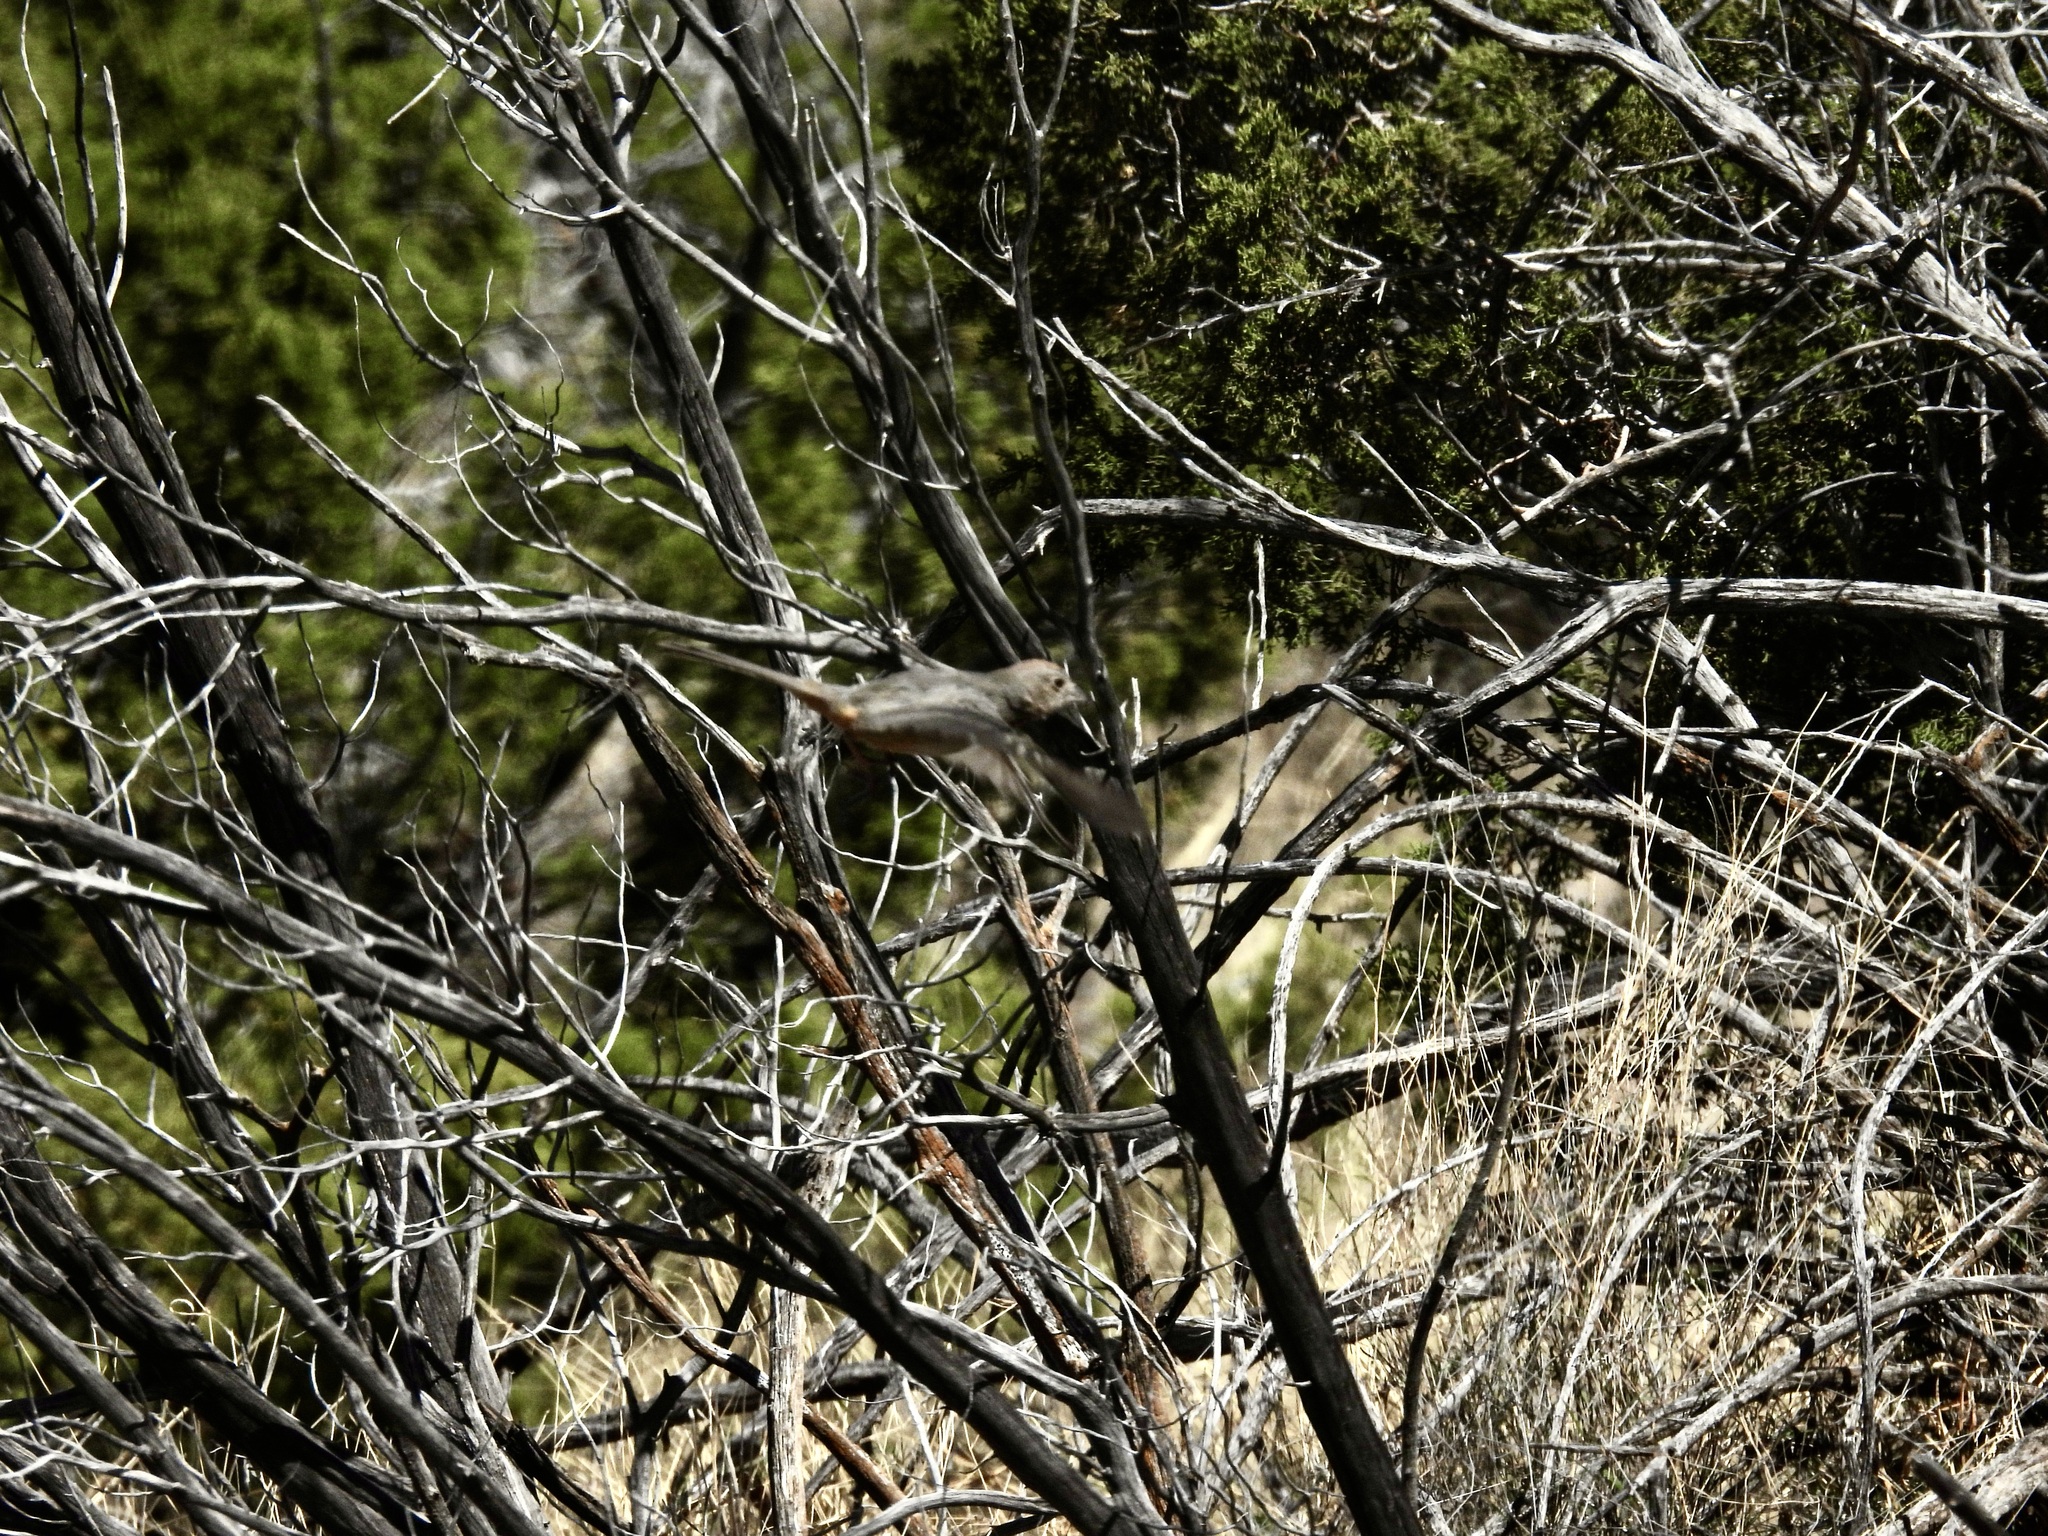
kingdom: Animalia
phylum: Chordata
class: Aves
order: Passeriformes
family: Passerellidae
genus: Melozone
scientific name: Melozone fusca
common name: Canyon towhee
